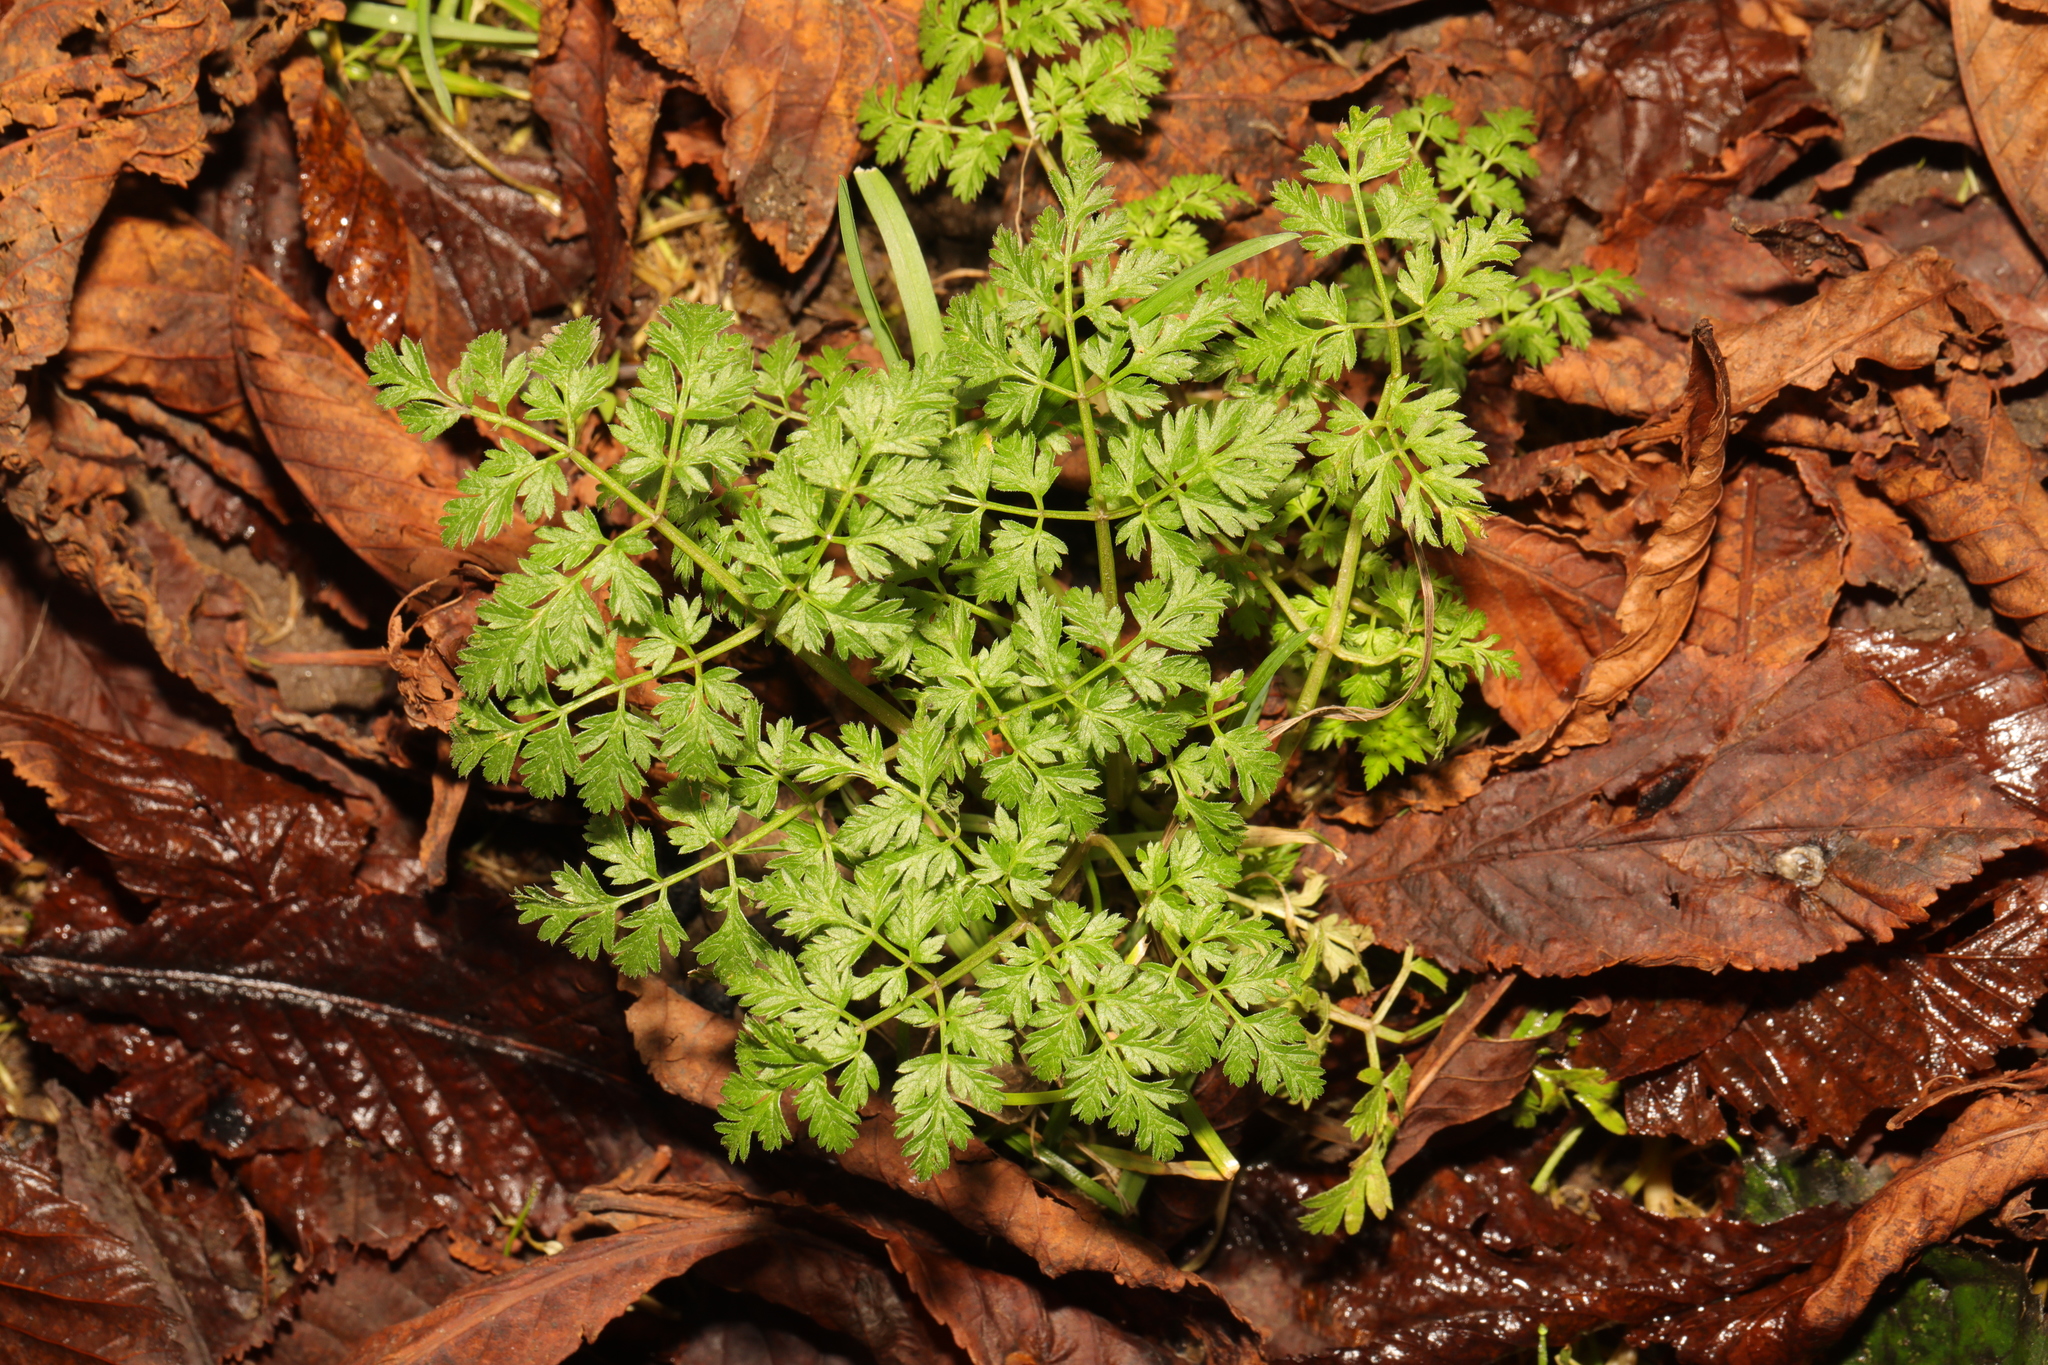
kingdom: Plantae
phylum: Tracheophyta
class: Magnoliopsida
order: Apiales
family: Apiaceae
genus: Anthriscus
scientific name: Anthriscus sylvestris
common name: Cow parsley
